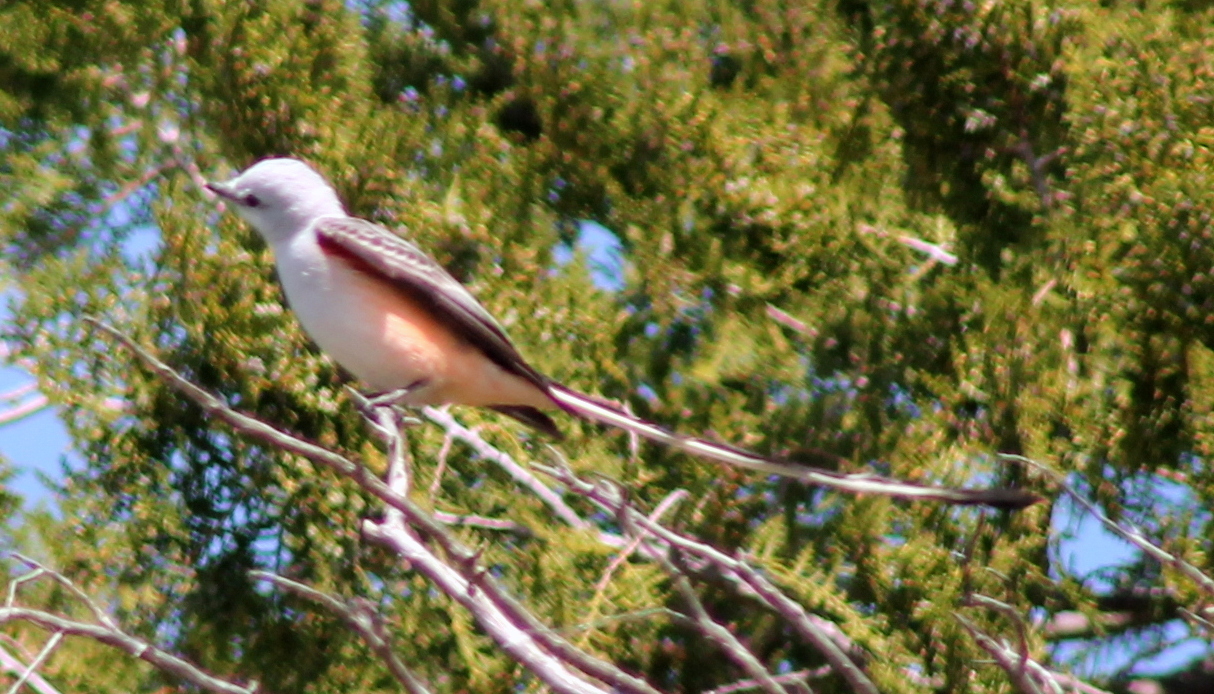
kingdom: Animalia
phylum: Chordata
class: Aves
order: Passeriformes
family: Tyrannidae
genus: Tyrannus
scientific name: Tyrannus forficatus
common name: Scissor-tailed flycatcher
